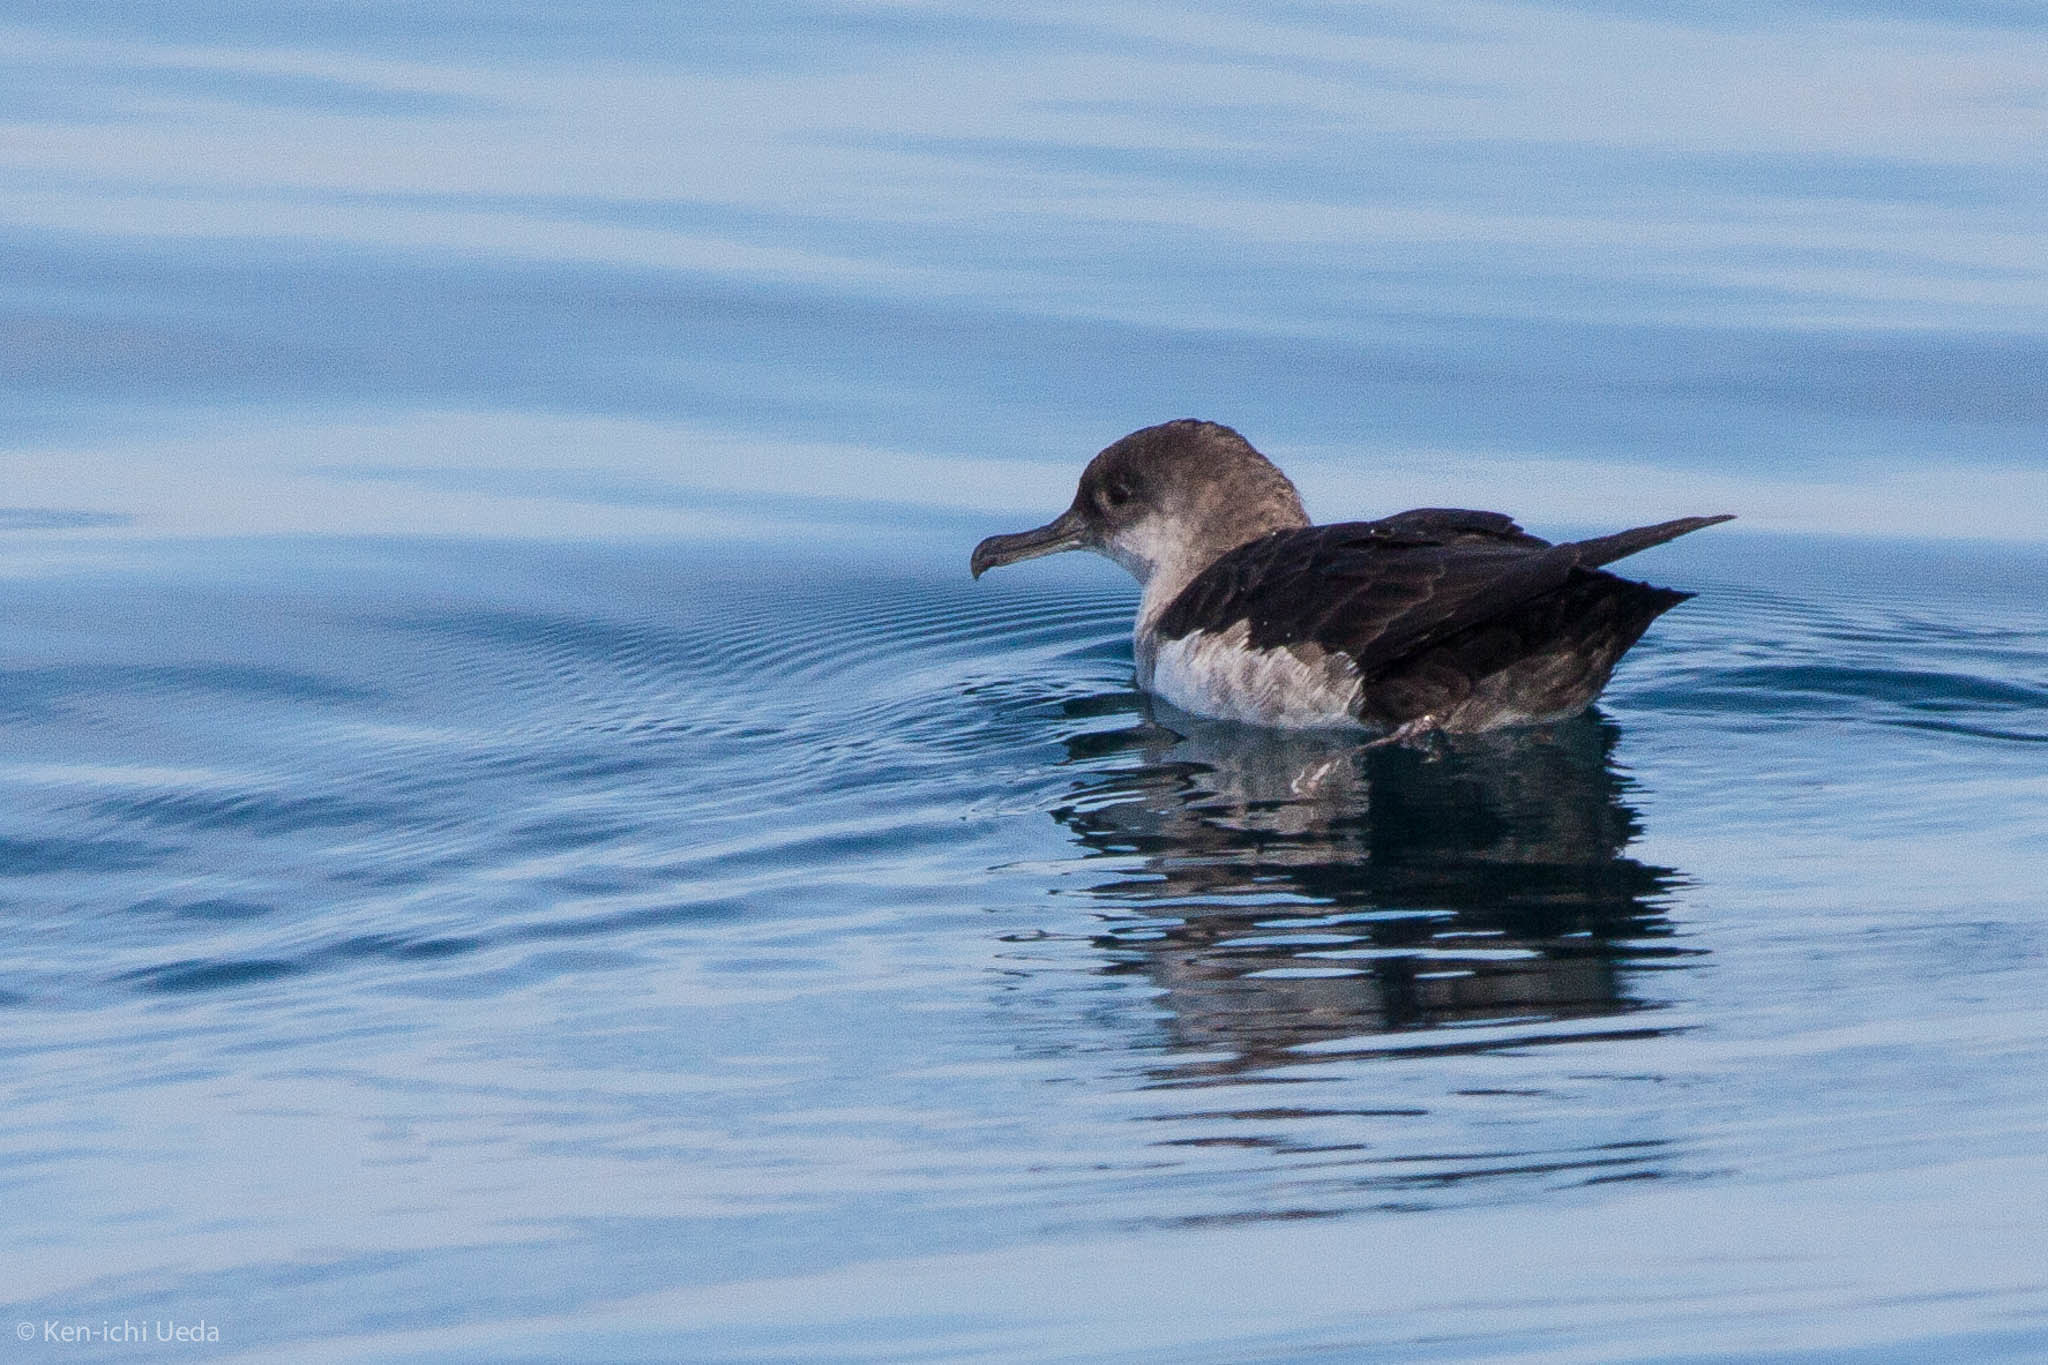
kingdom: Animalia
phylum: Chordata
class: Aves
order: Procellariiformes
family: Procellariidae
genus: Puffinus
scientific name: Puffinus opisthomelas
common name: Black-vented shearwater
